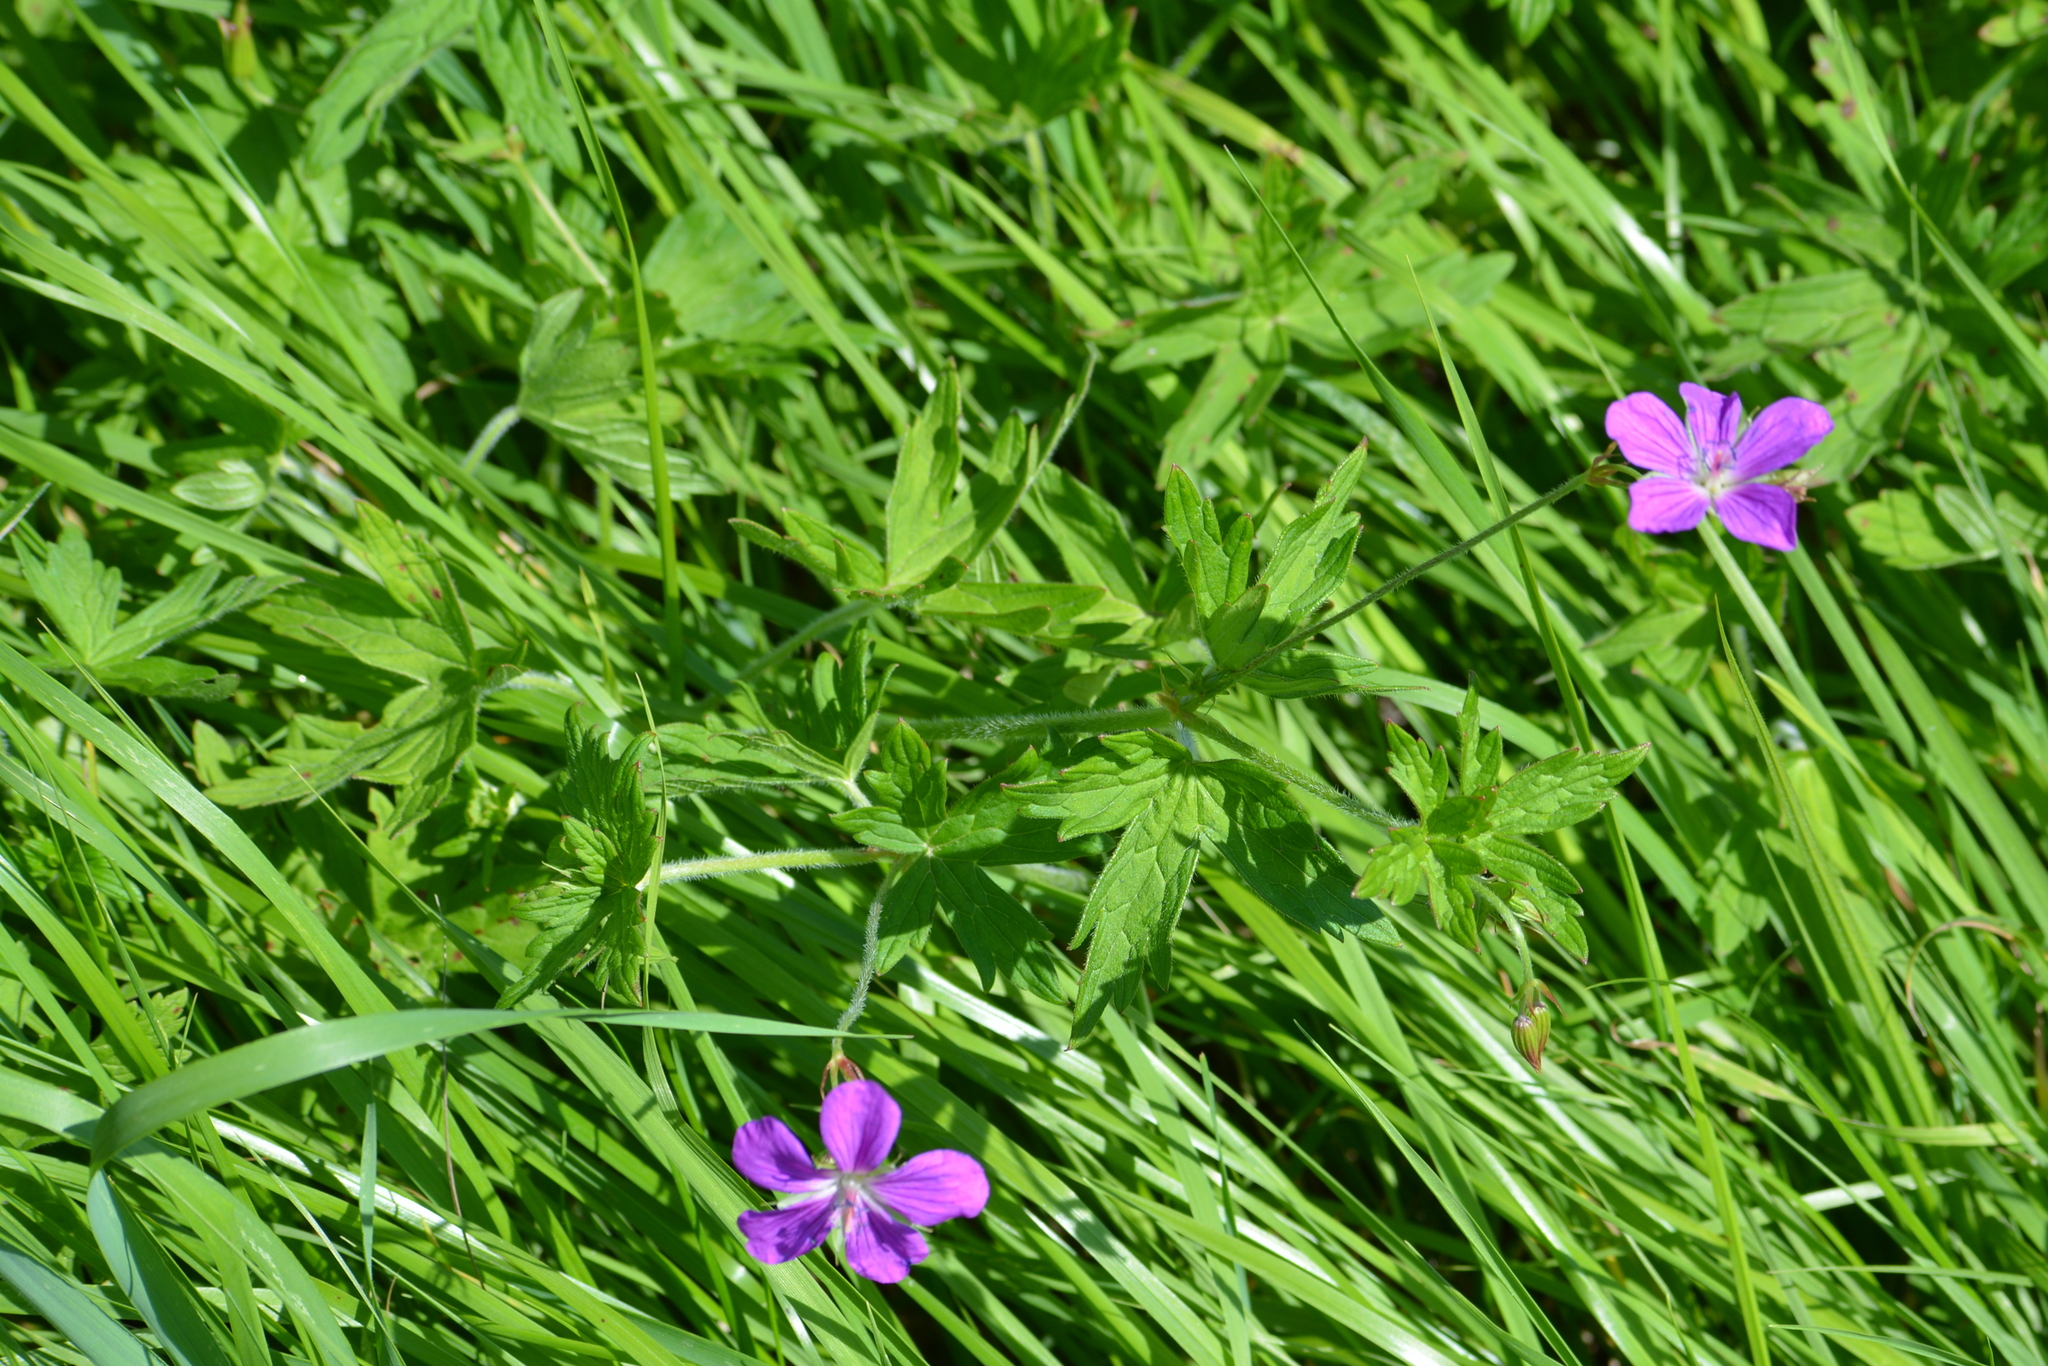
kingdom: Plantae
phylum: Tracheophyta
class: Magnoliopsida
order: Geraniales
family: Geraniaceae
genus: Geranium
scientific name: Geranium palustre
